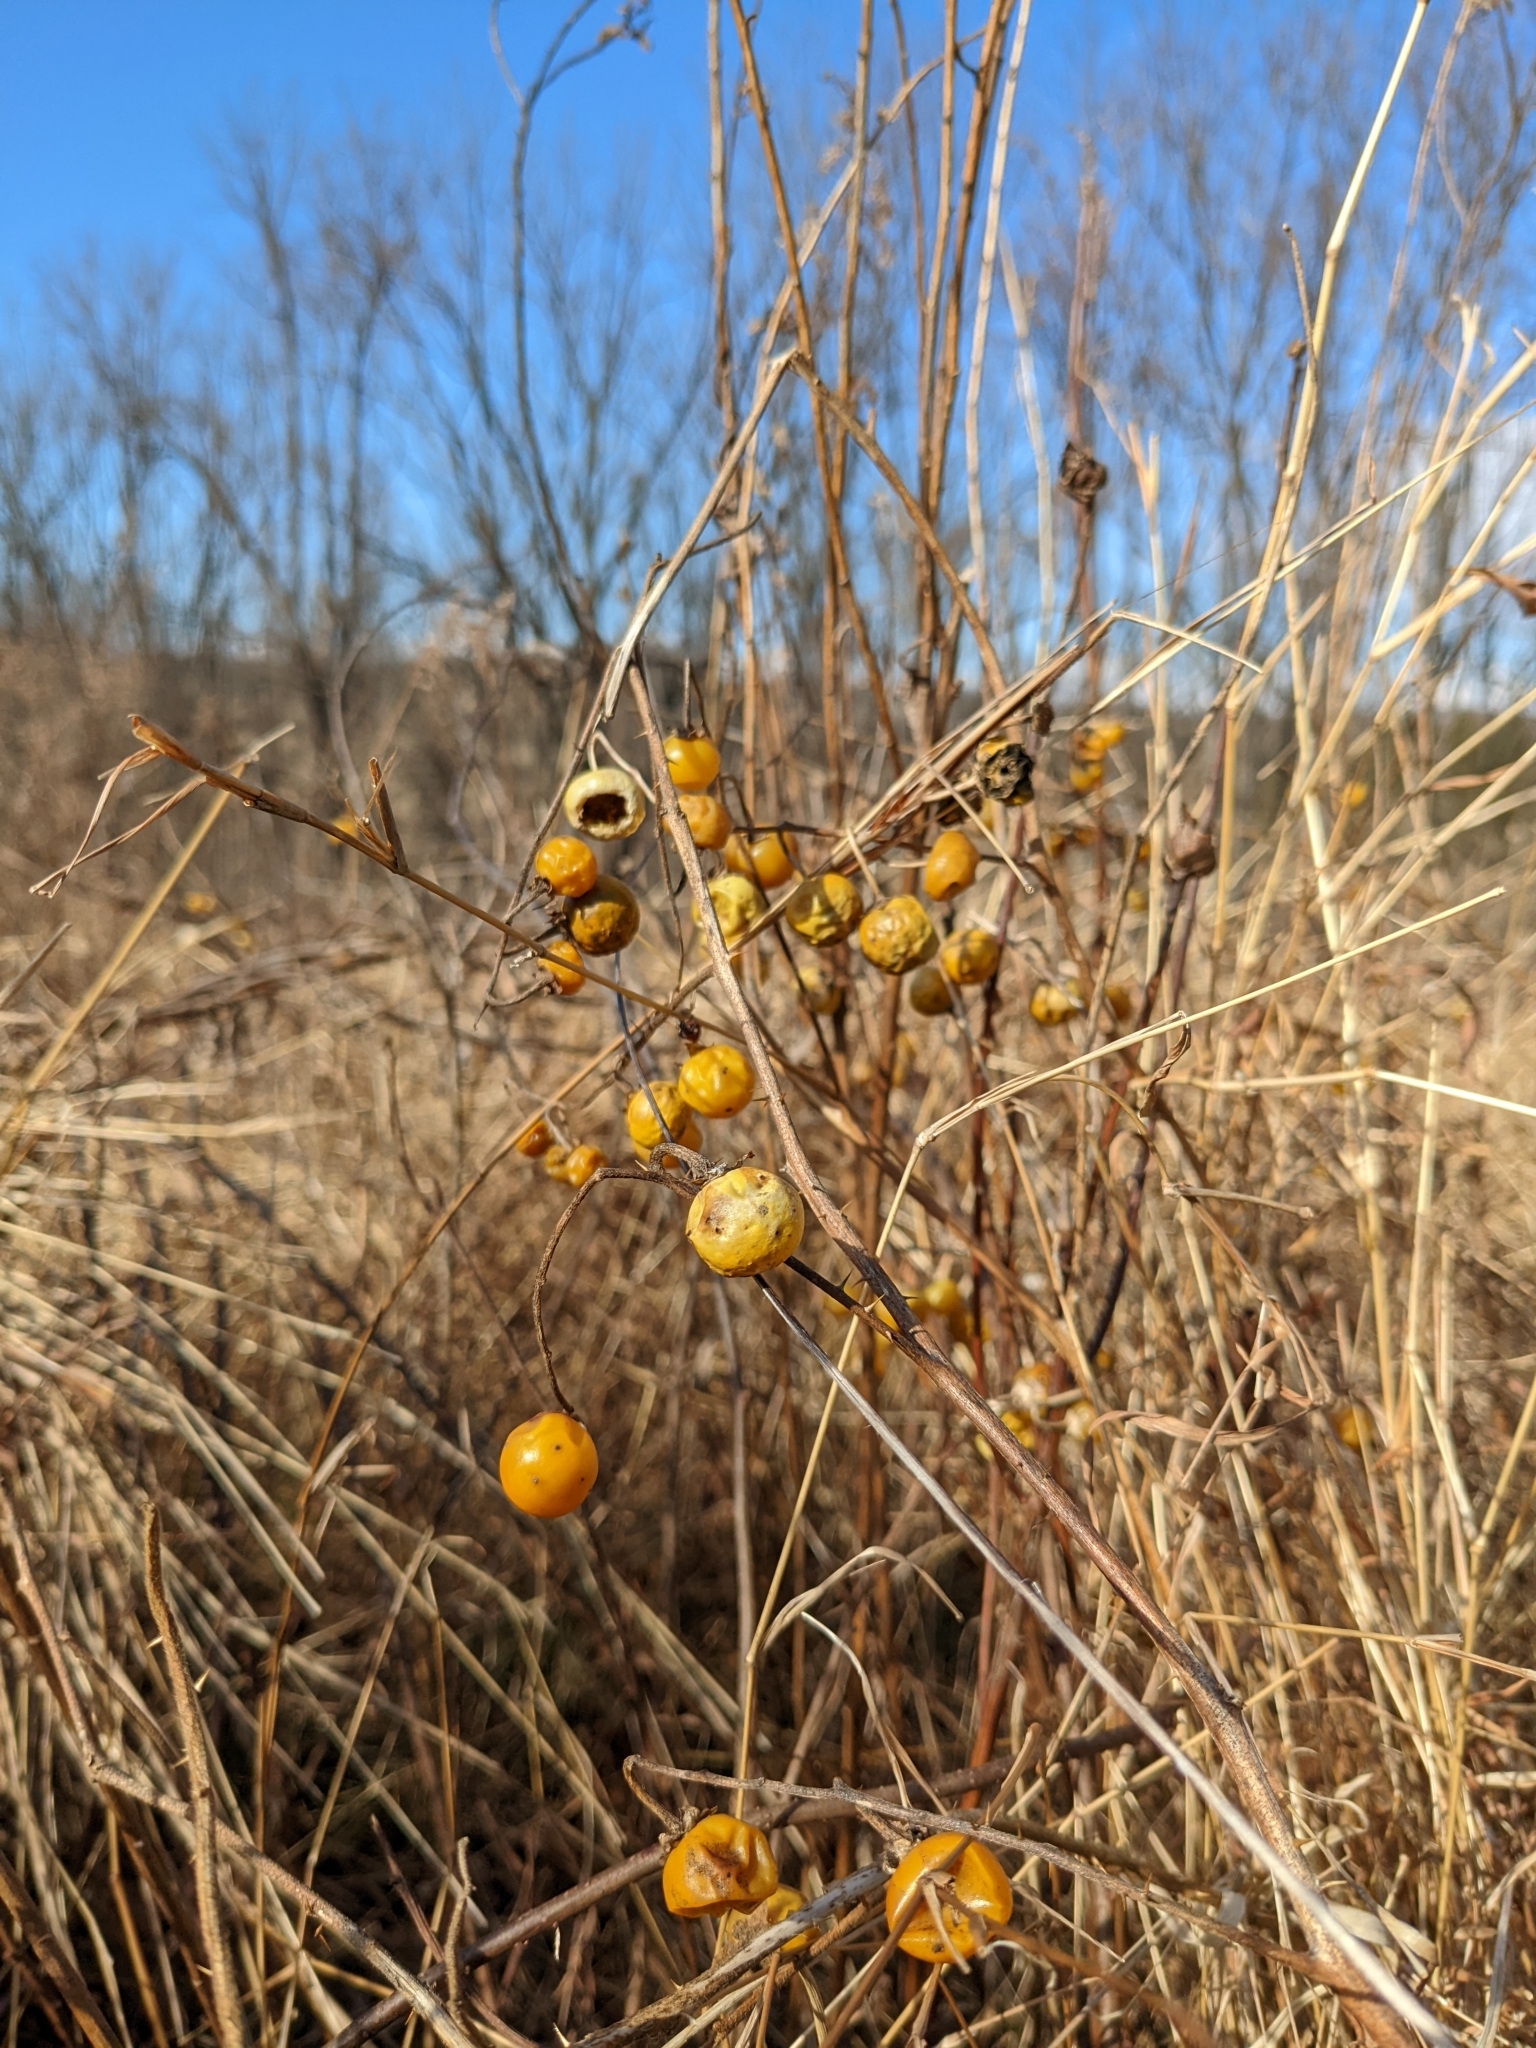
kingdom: Plantae
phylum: Tracheophyta
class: Magnoliopsida
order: Solanales
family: Solanaceae
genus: Solanum
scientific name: Solanum carolinense
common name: Horse-nettle
